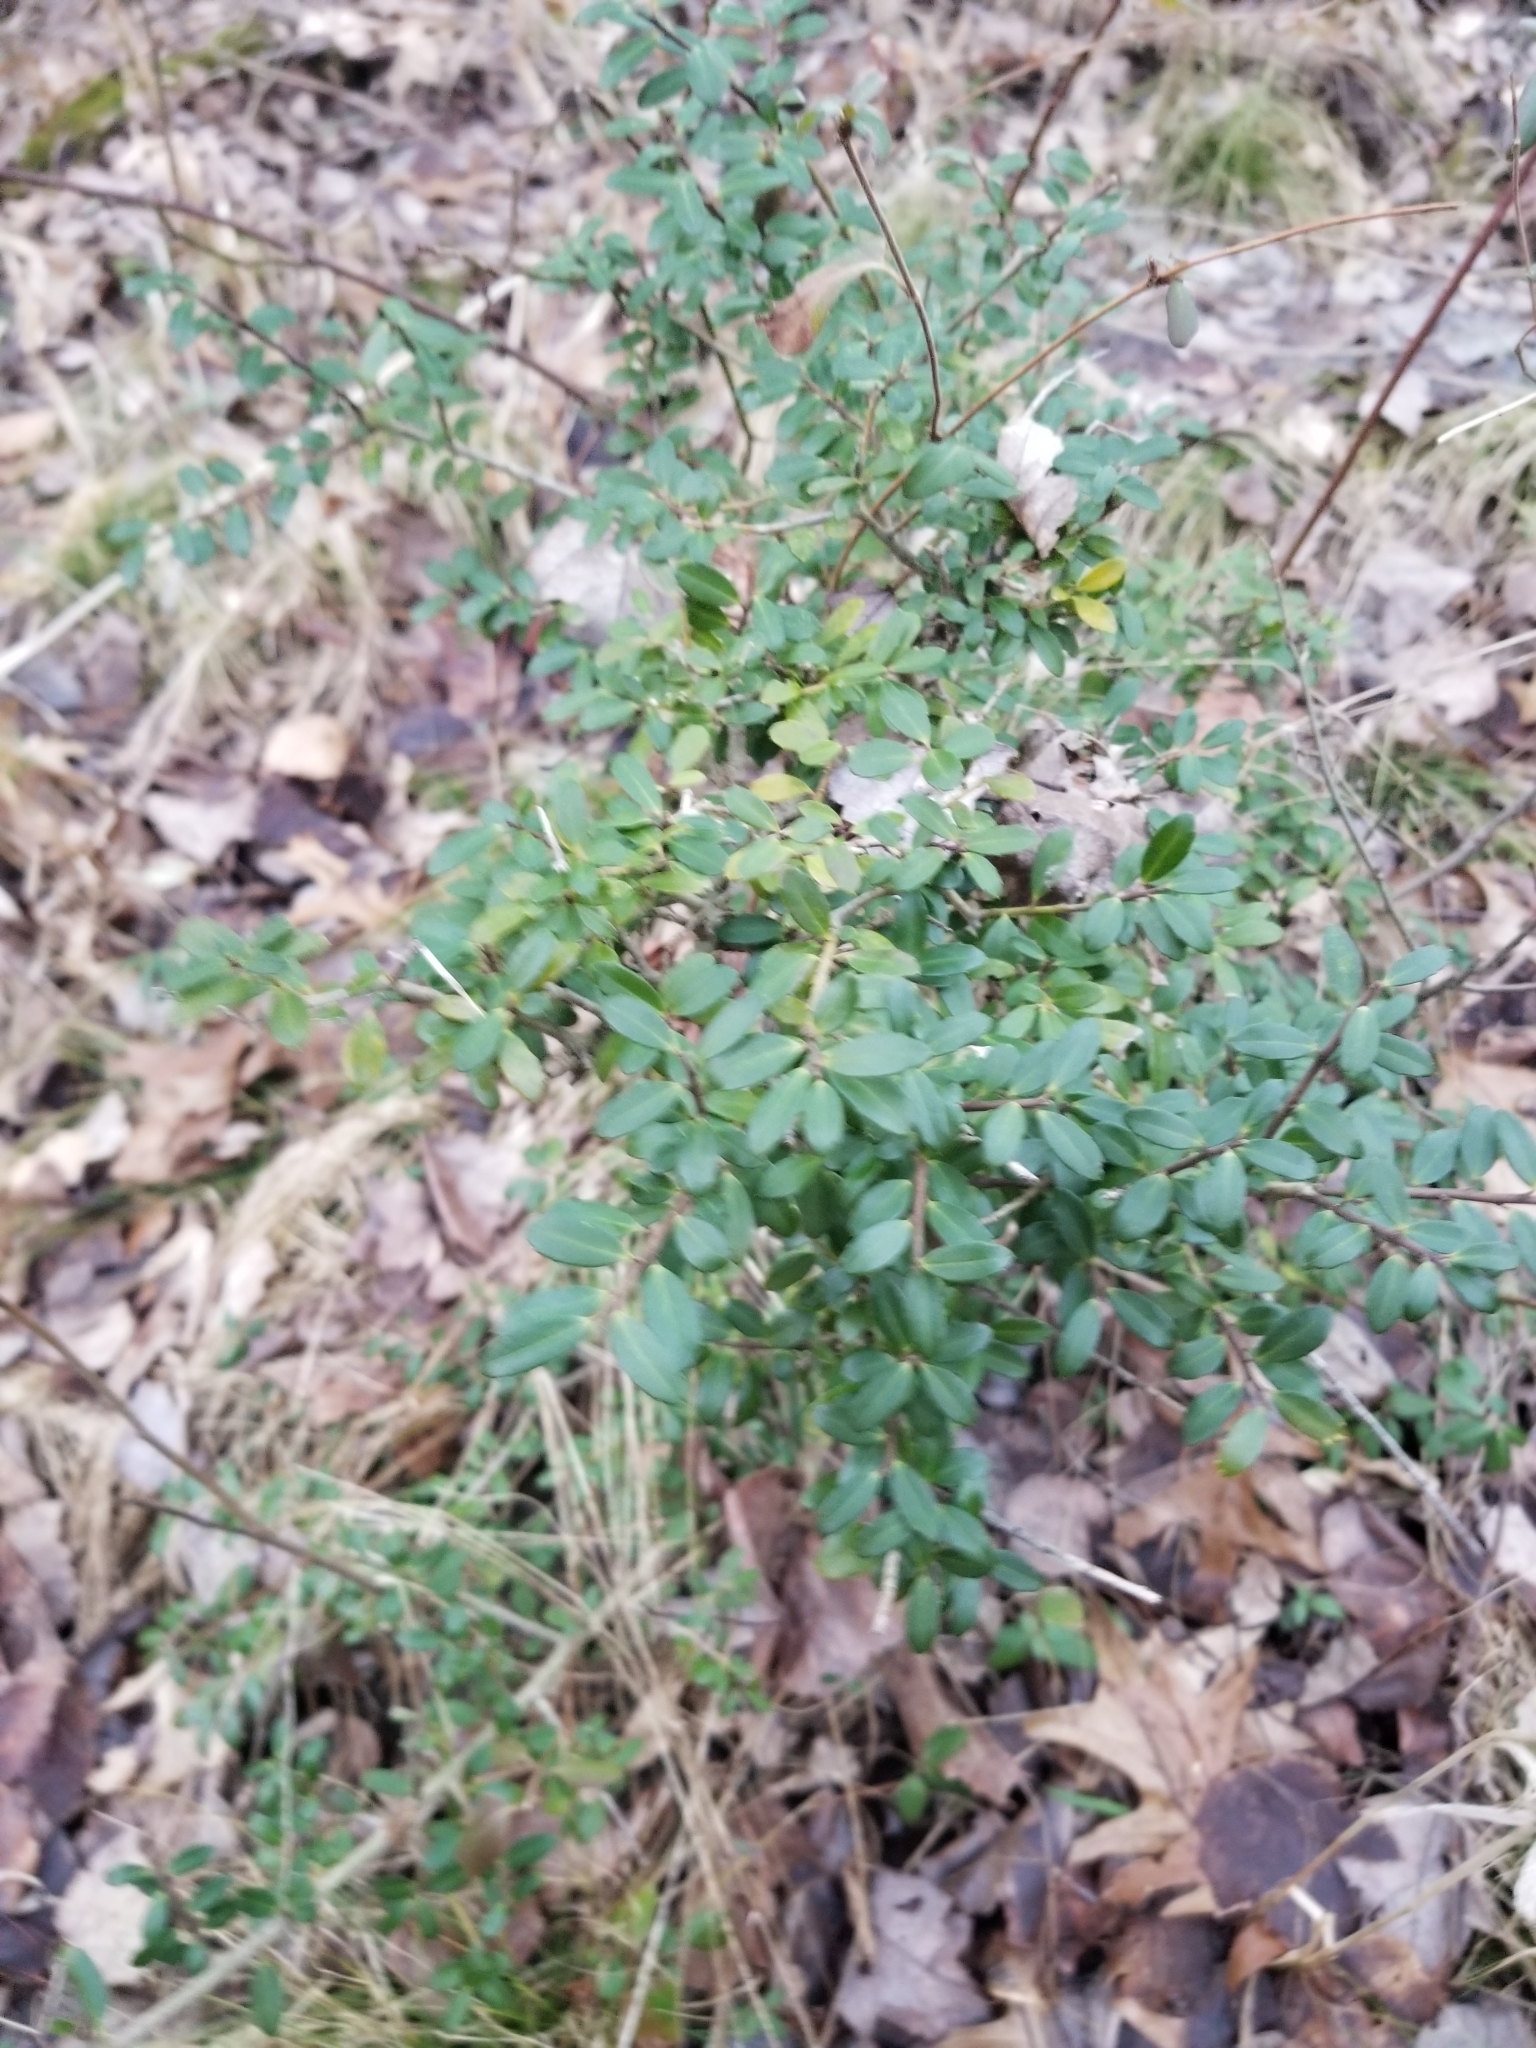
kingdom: Plantae
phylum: Tracheophyta
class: Magnoliopsida
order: Aquifoliales
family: Aquifoliaceae
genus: Ilex
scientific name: Ilex crenata
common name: Japanese holly
